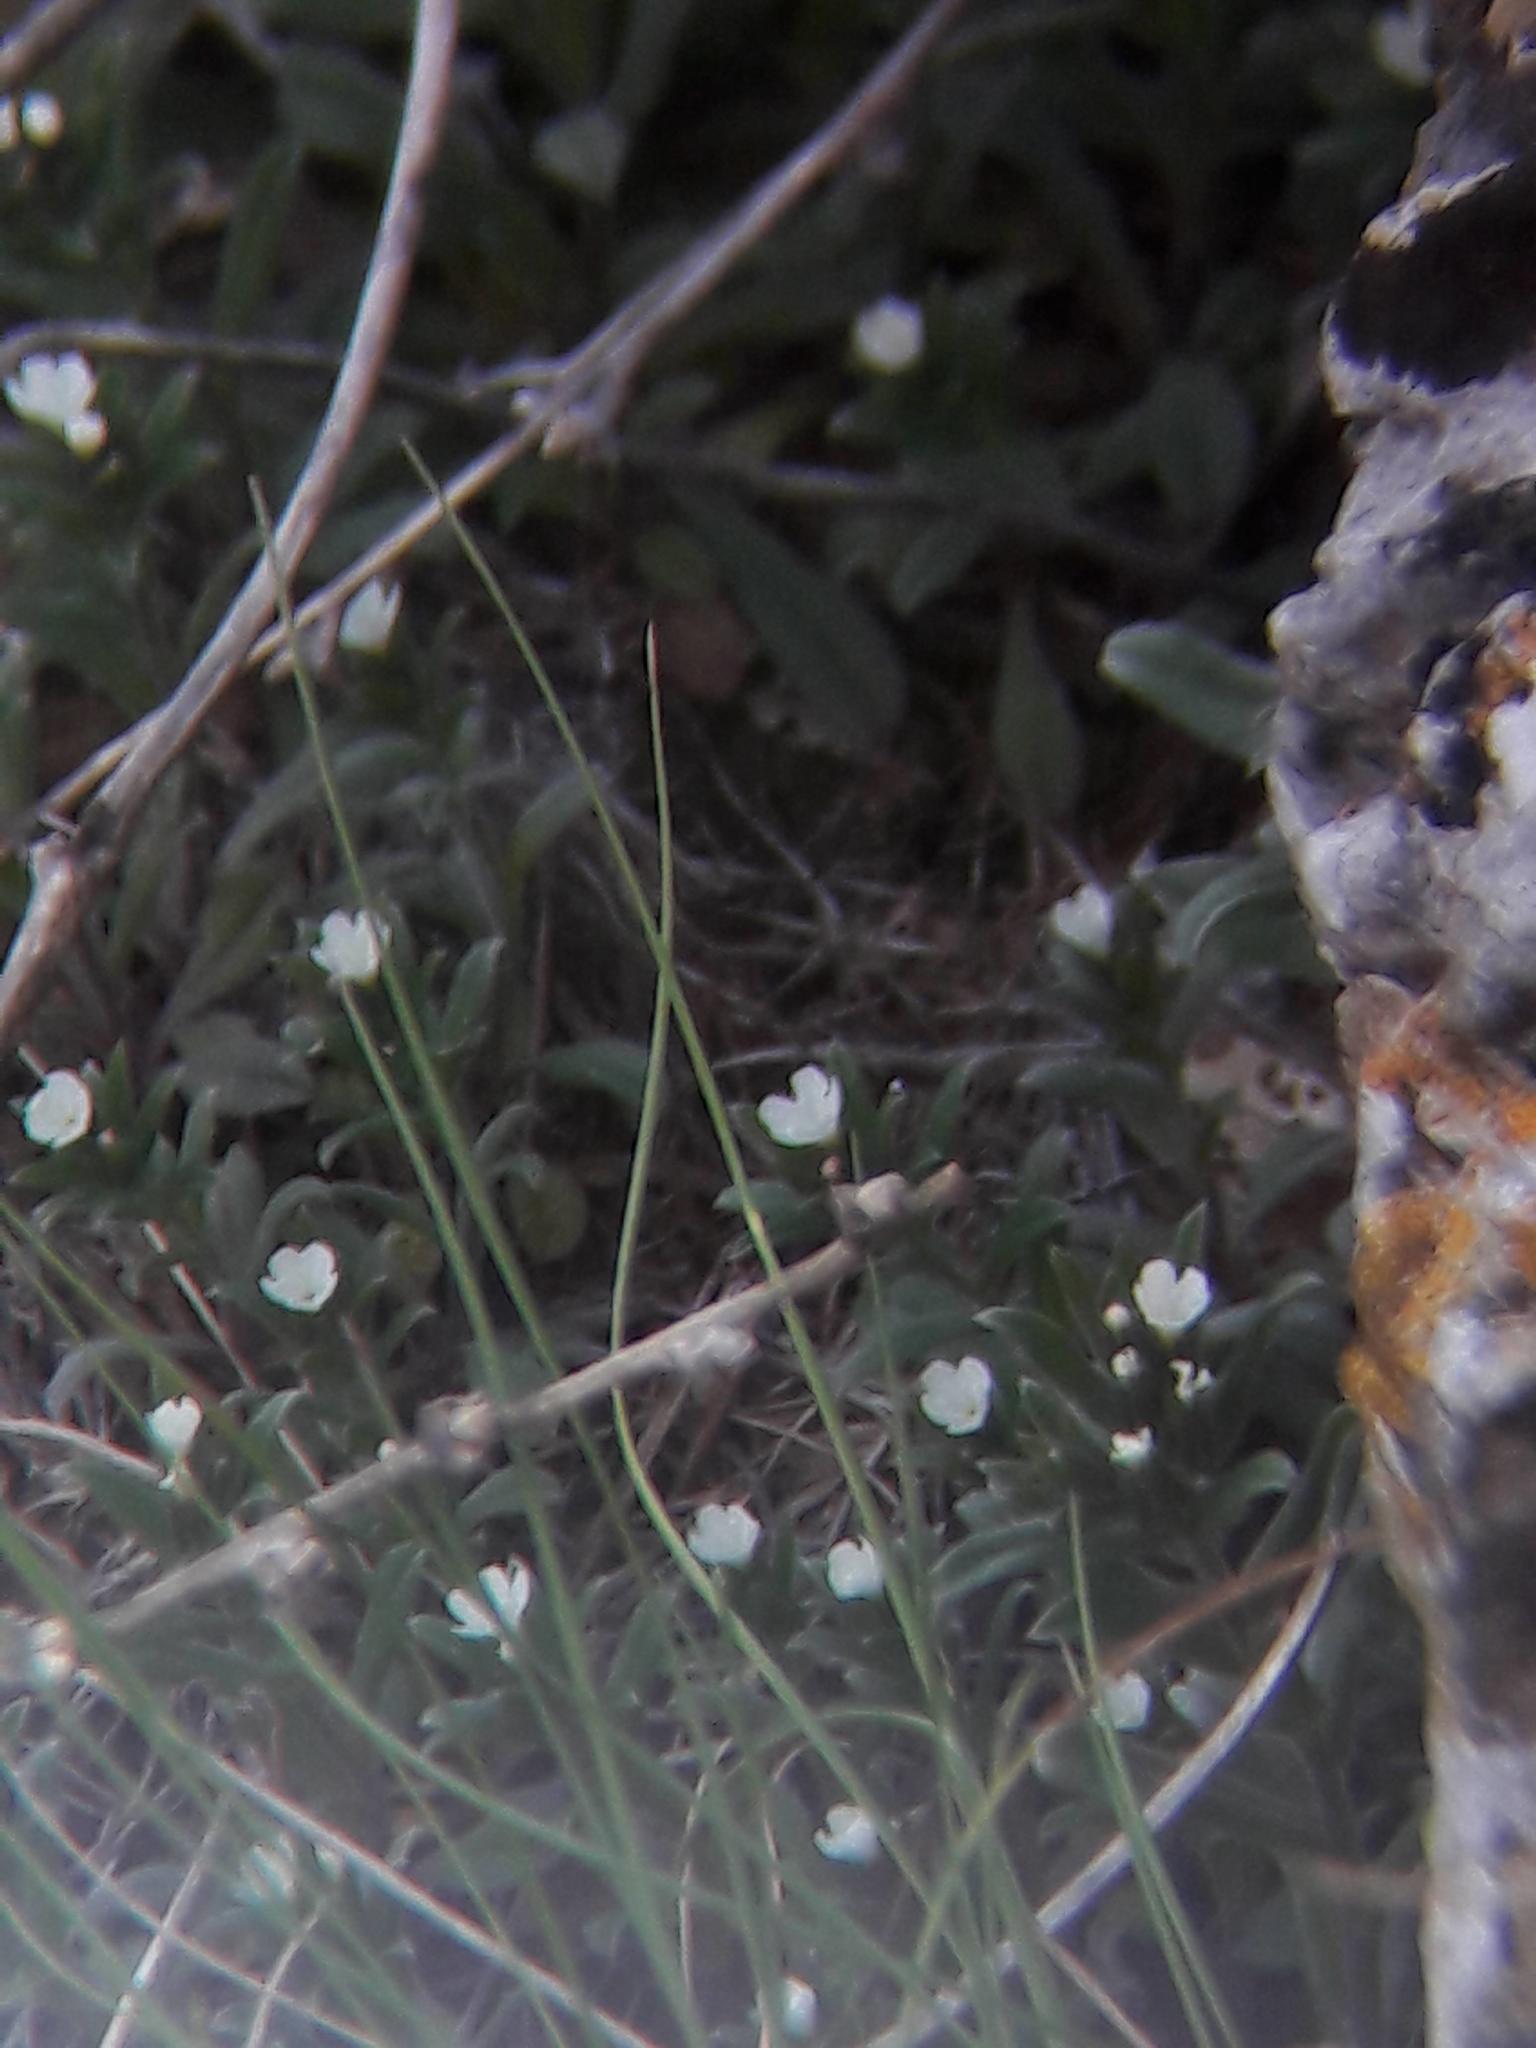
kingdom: Plantae
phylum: Tracheophyta
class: Magnoliopsida
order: Boraginales
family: Boraginaceae
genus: Buglossoides
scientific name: Buglossoides arvensis
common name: Corn gromwell
